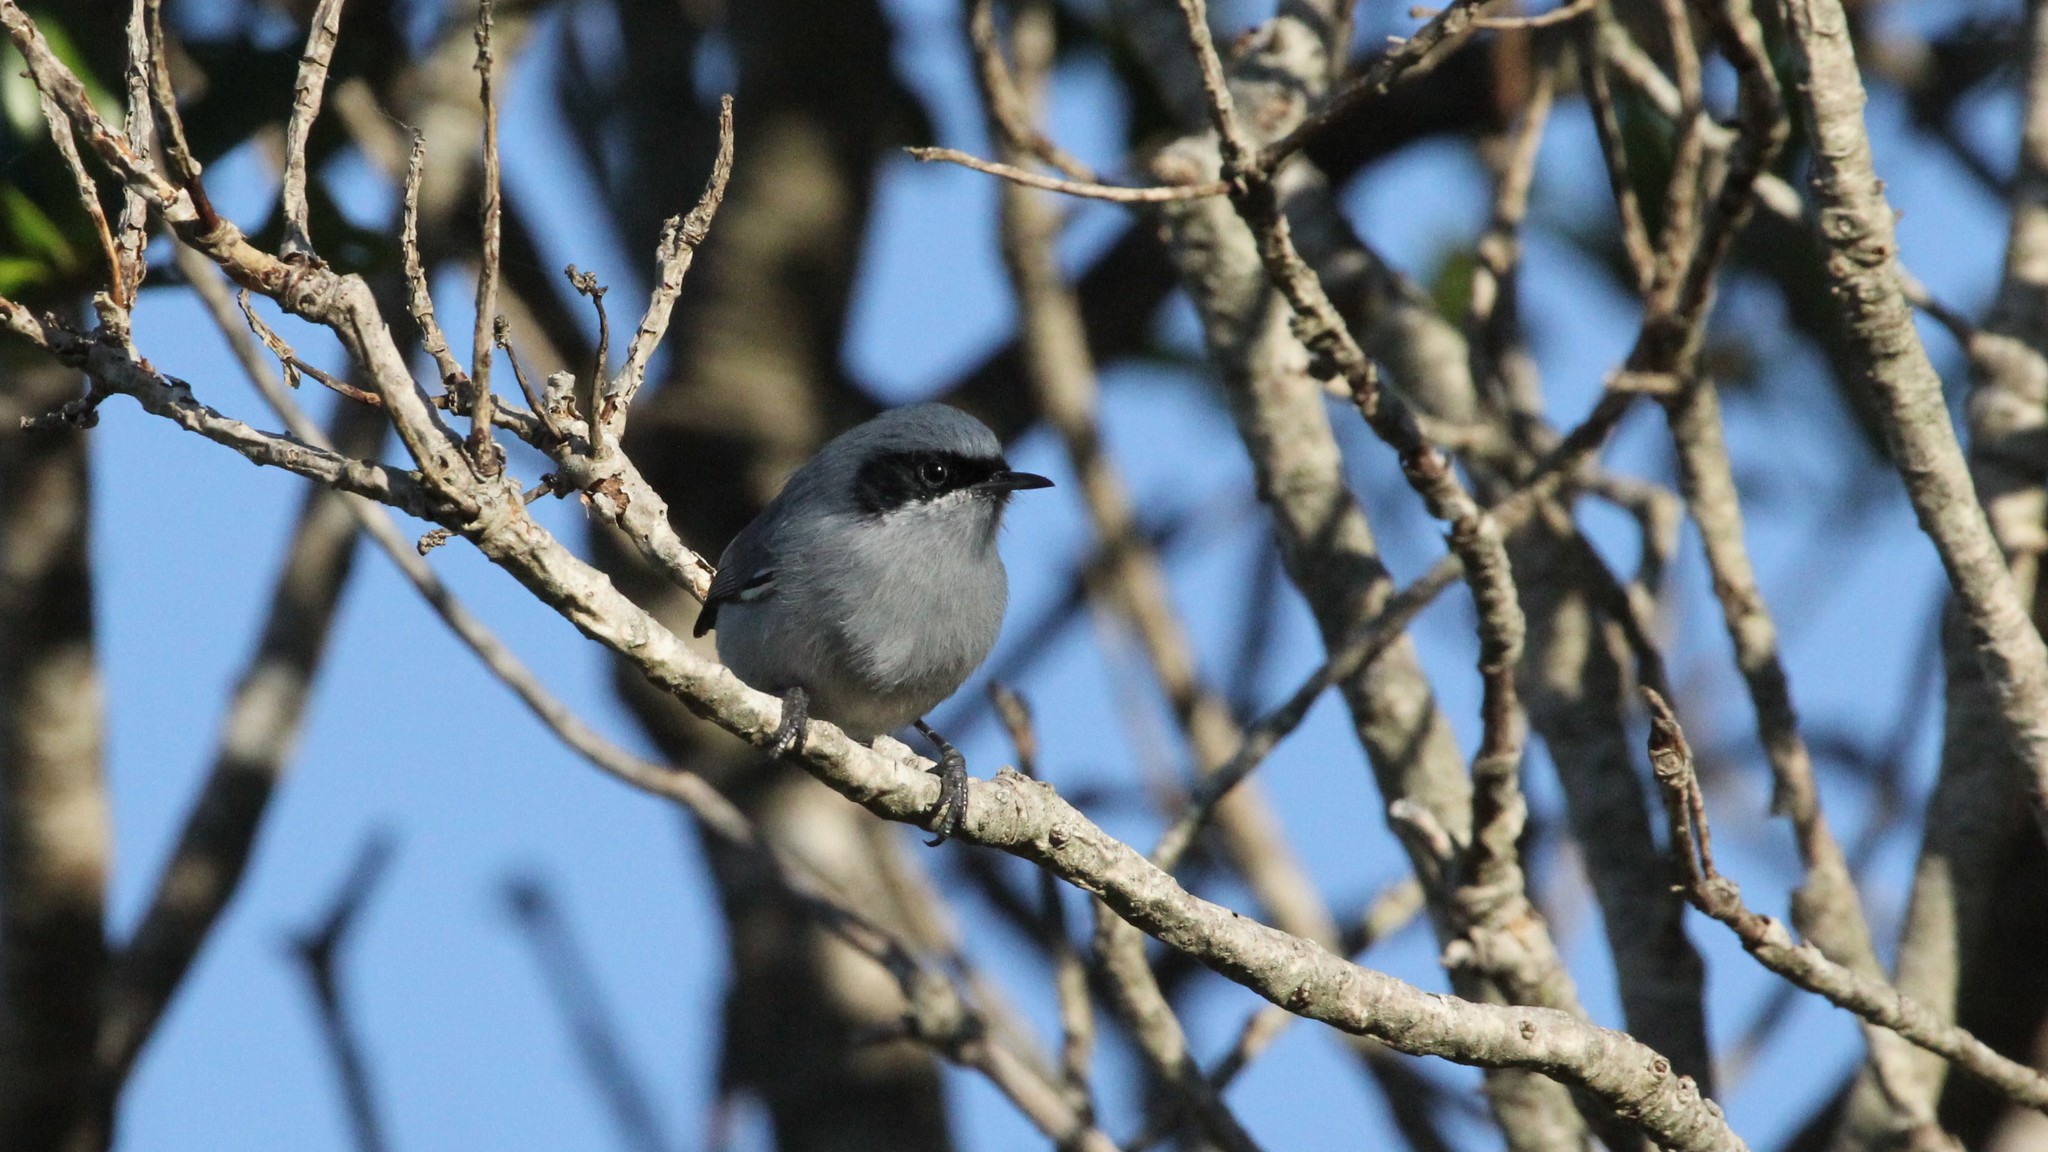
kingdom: Animalia
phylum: Chordata
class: Aves
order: Passeriformes
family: Polioptilidae
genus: Polioptila
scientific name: Polioptila dumicola
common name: Masked gnatcatcher
